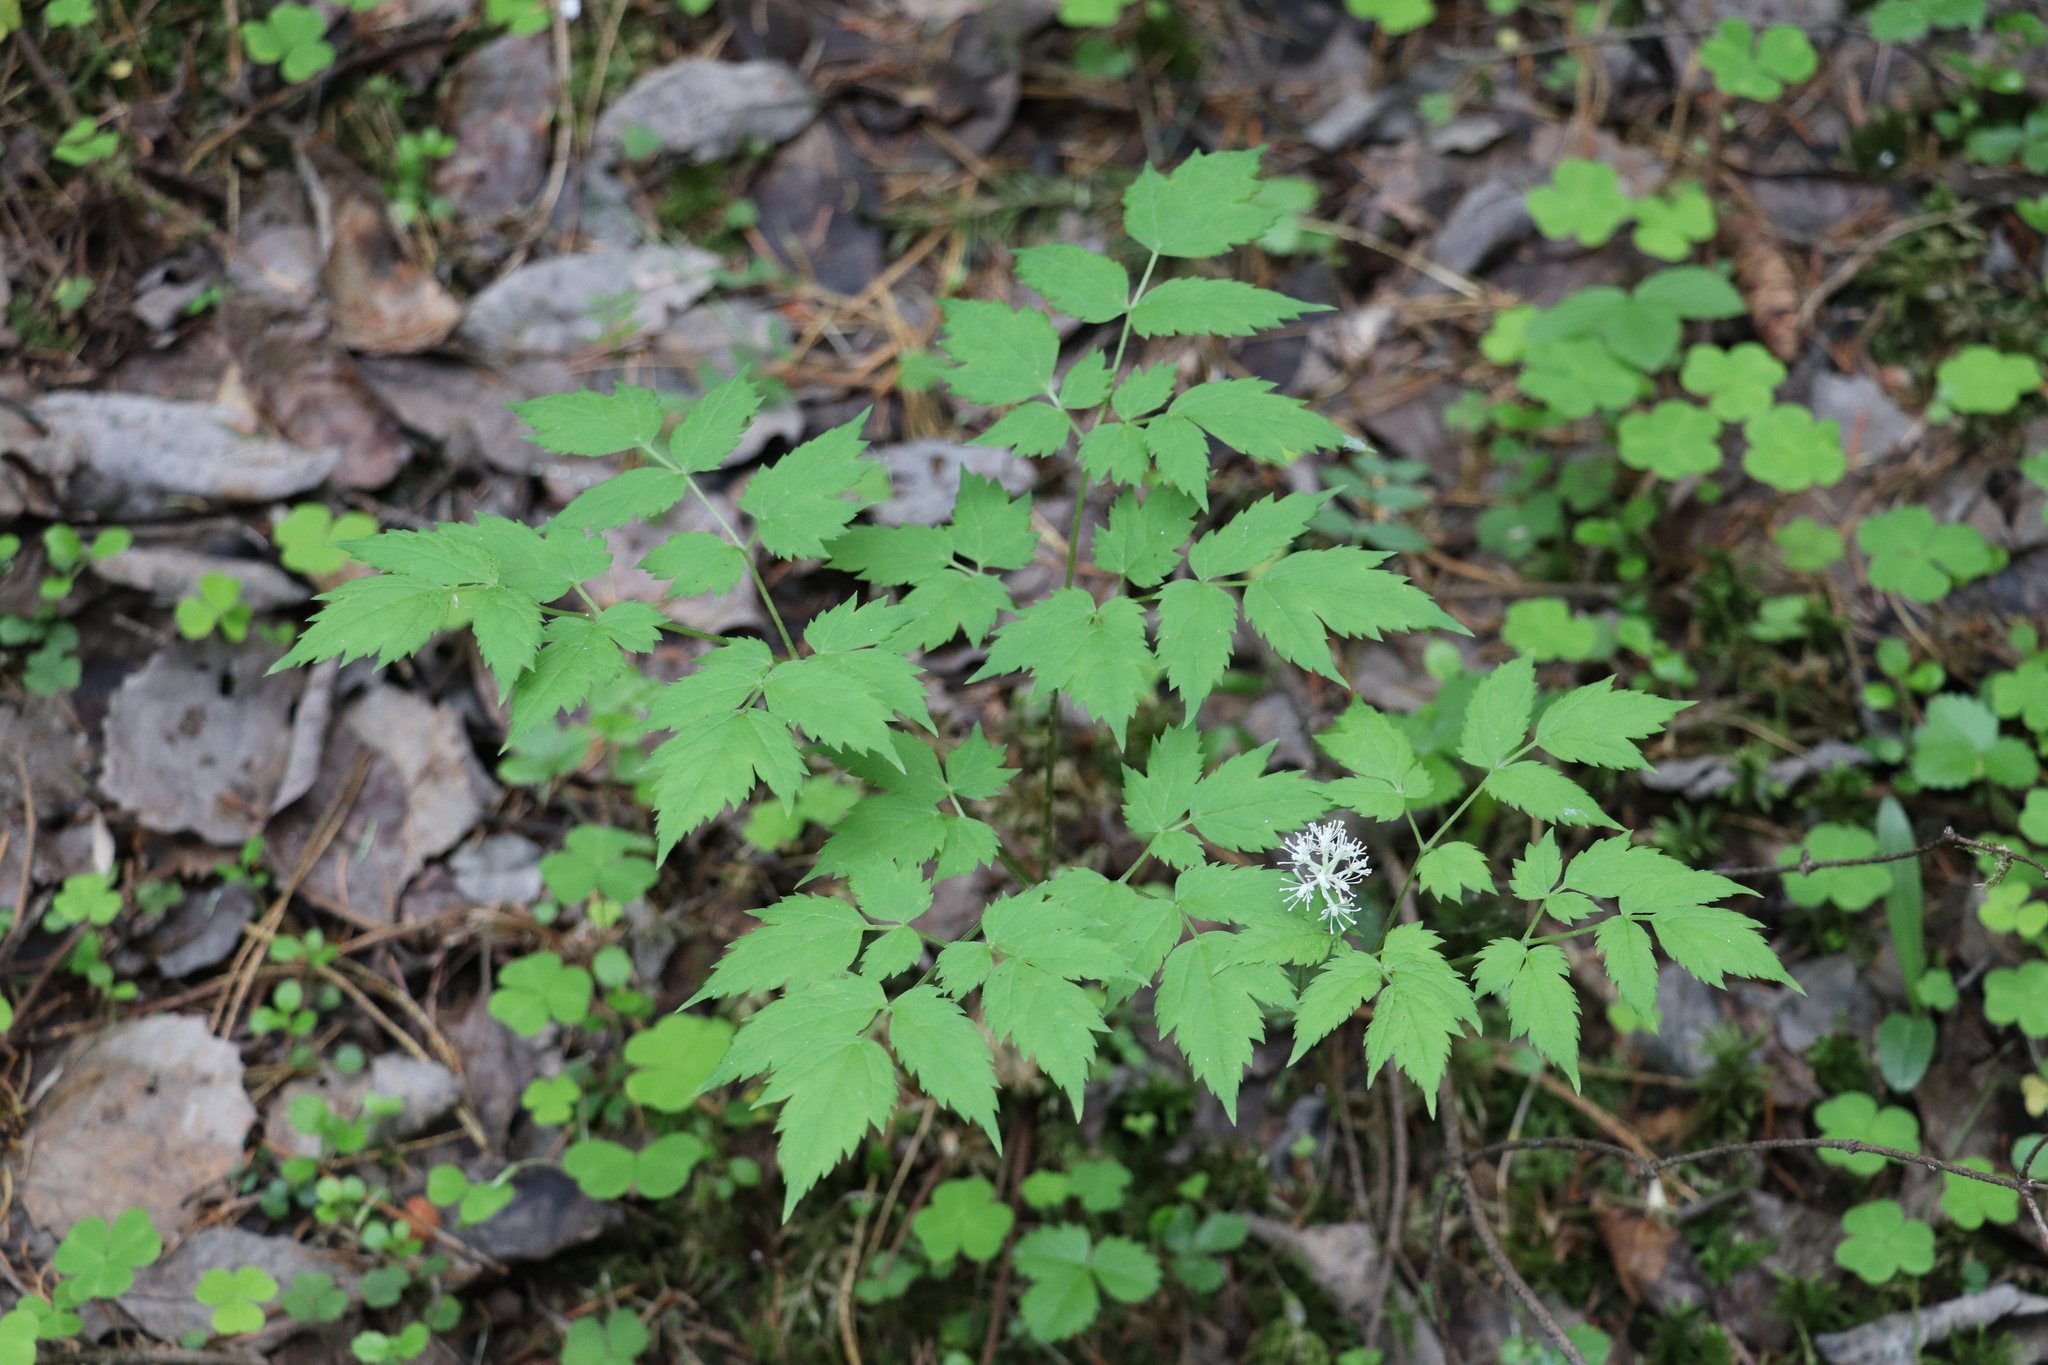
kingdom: Plantae
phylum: Tracheophyta
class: Magnoliopsida
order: Ranunculales
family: Ranunculaceae
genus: Actaea
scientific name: Actaea erythrocarpa
